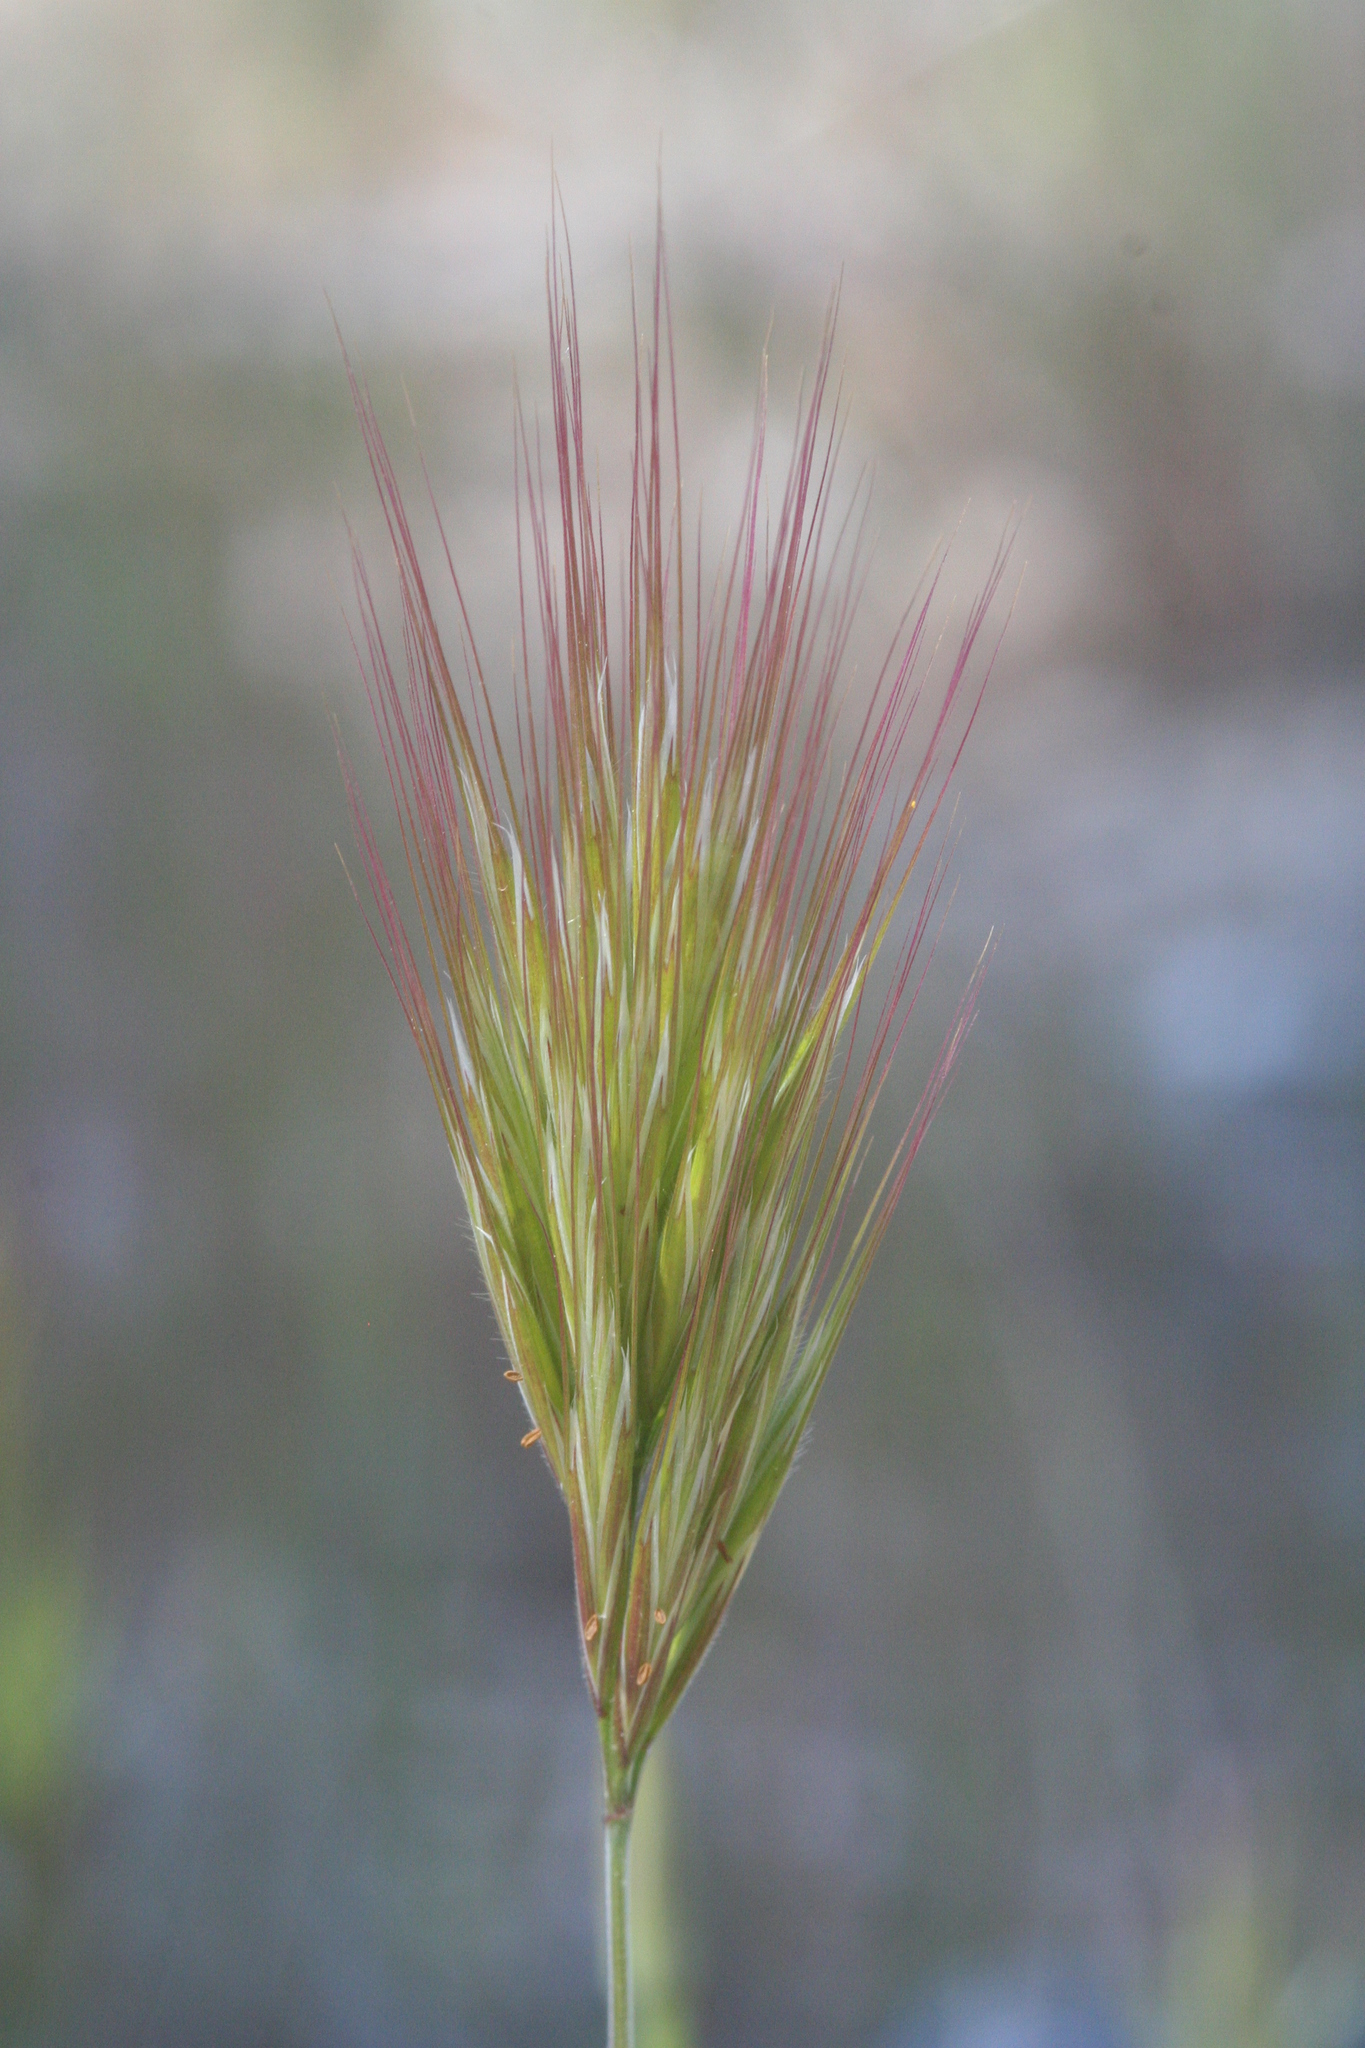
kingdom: Plantae
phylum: Tracheophyta
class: Liliopsida
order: Poales
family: Poaceae
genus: Bromus
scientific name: Bromus madritensis
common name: Compact brome
